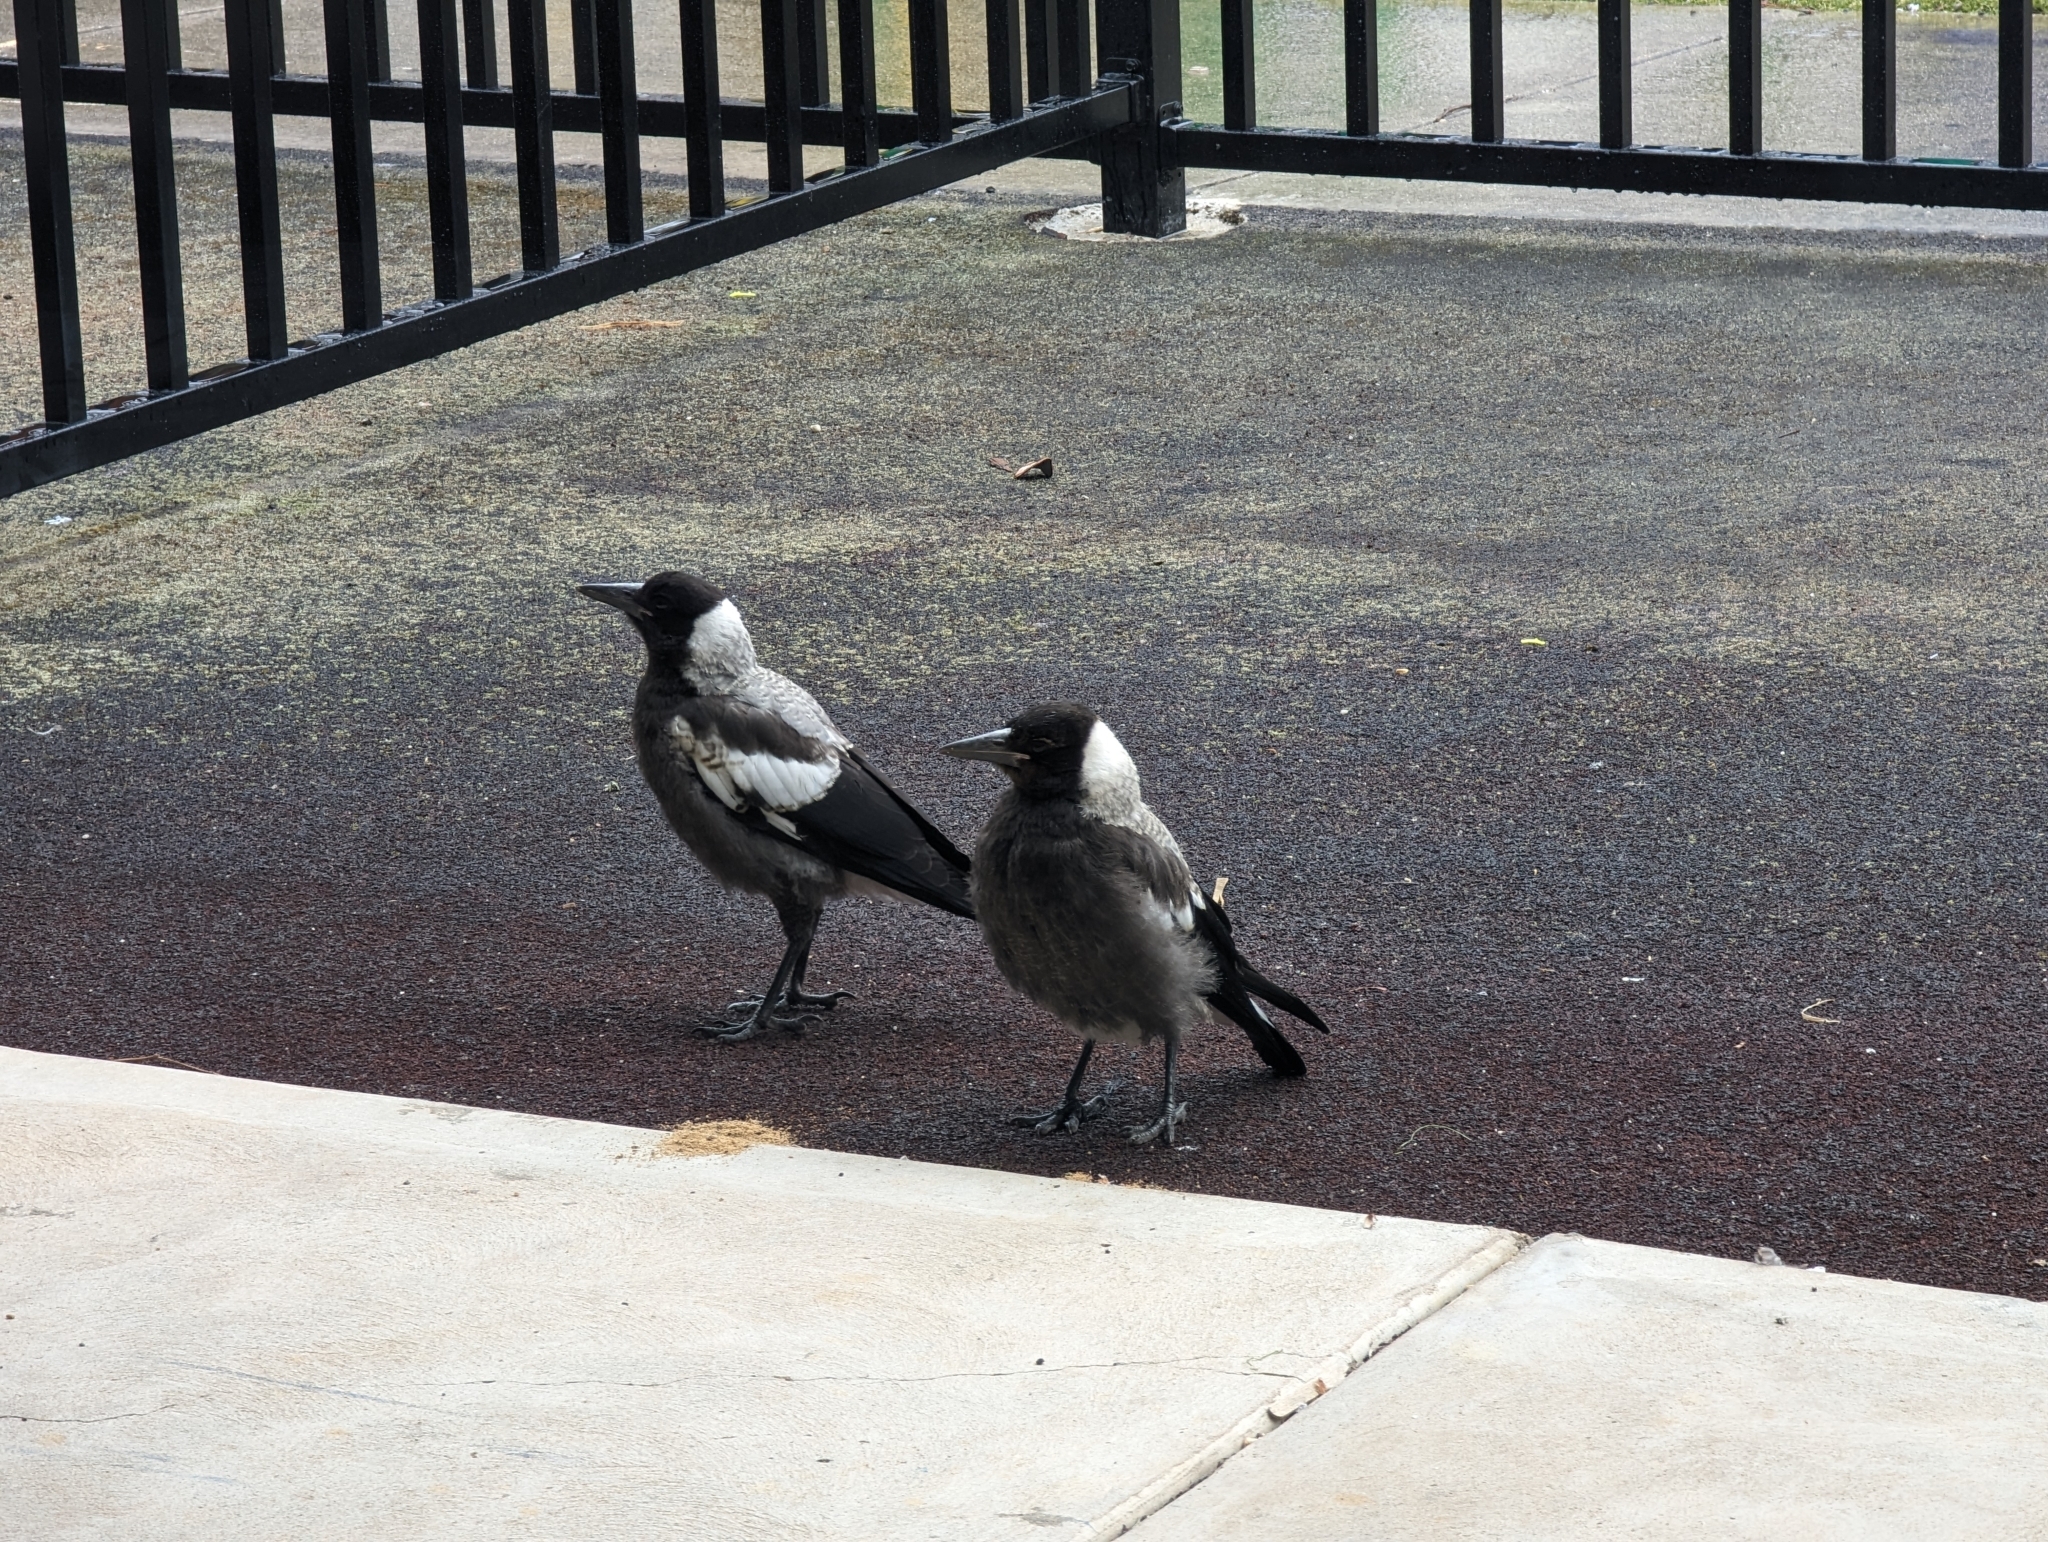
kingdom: Animalia
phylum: Chordata
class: Aves
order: Passeriformes
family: Cracticidae
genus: Gymnorhina
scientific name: Gymnorhina tibicen
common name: Australian magpie
